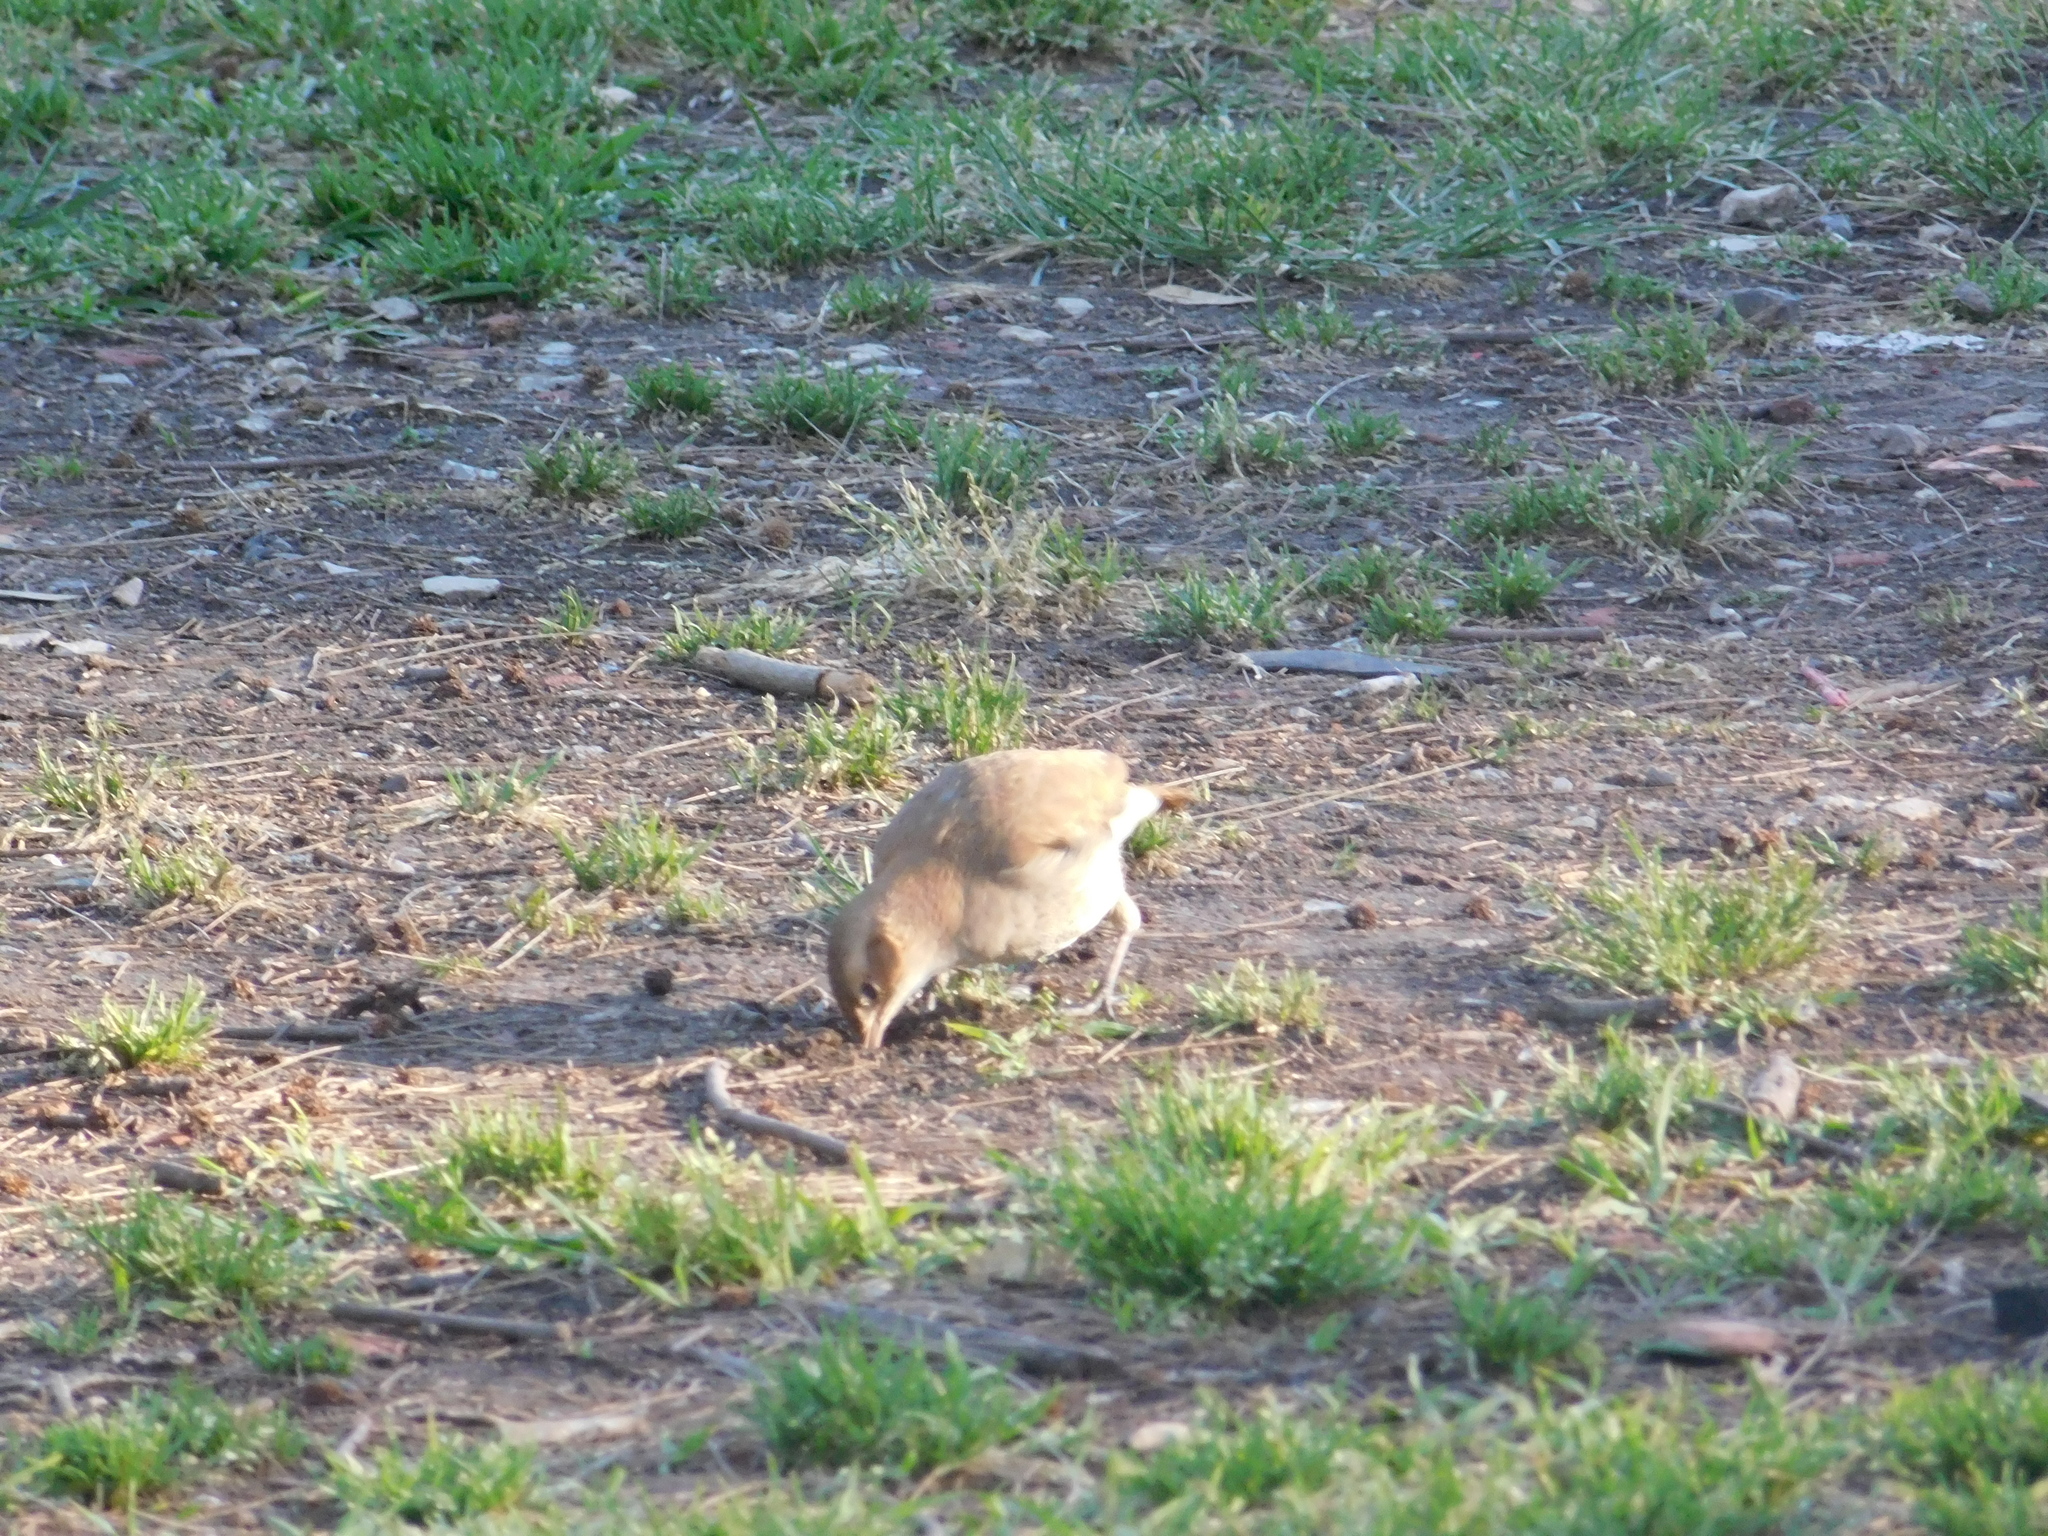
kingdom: Animalia
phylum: Chordata
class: Aves
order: Passeriformes
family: Furnariidae
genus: Furnarius
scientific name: Furnarius rufus
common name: Rufous hornero
